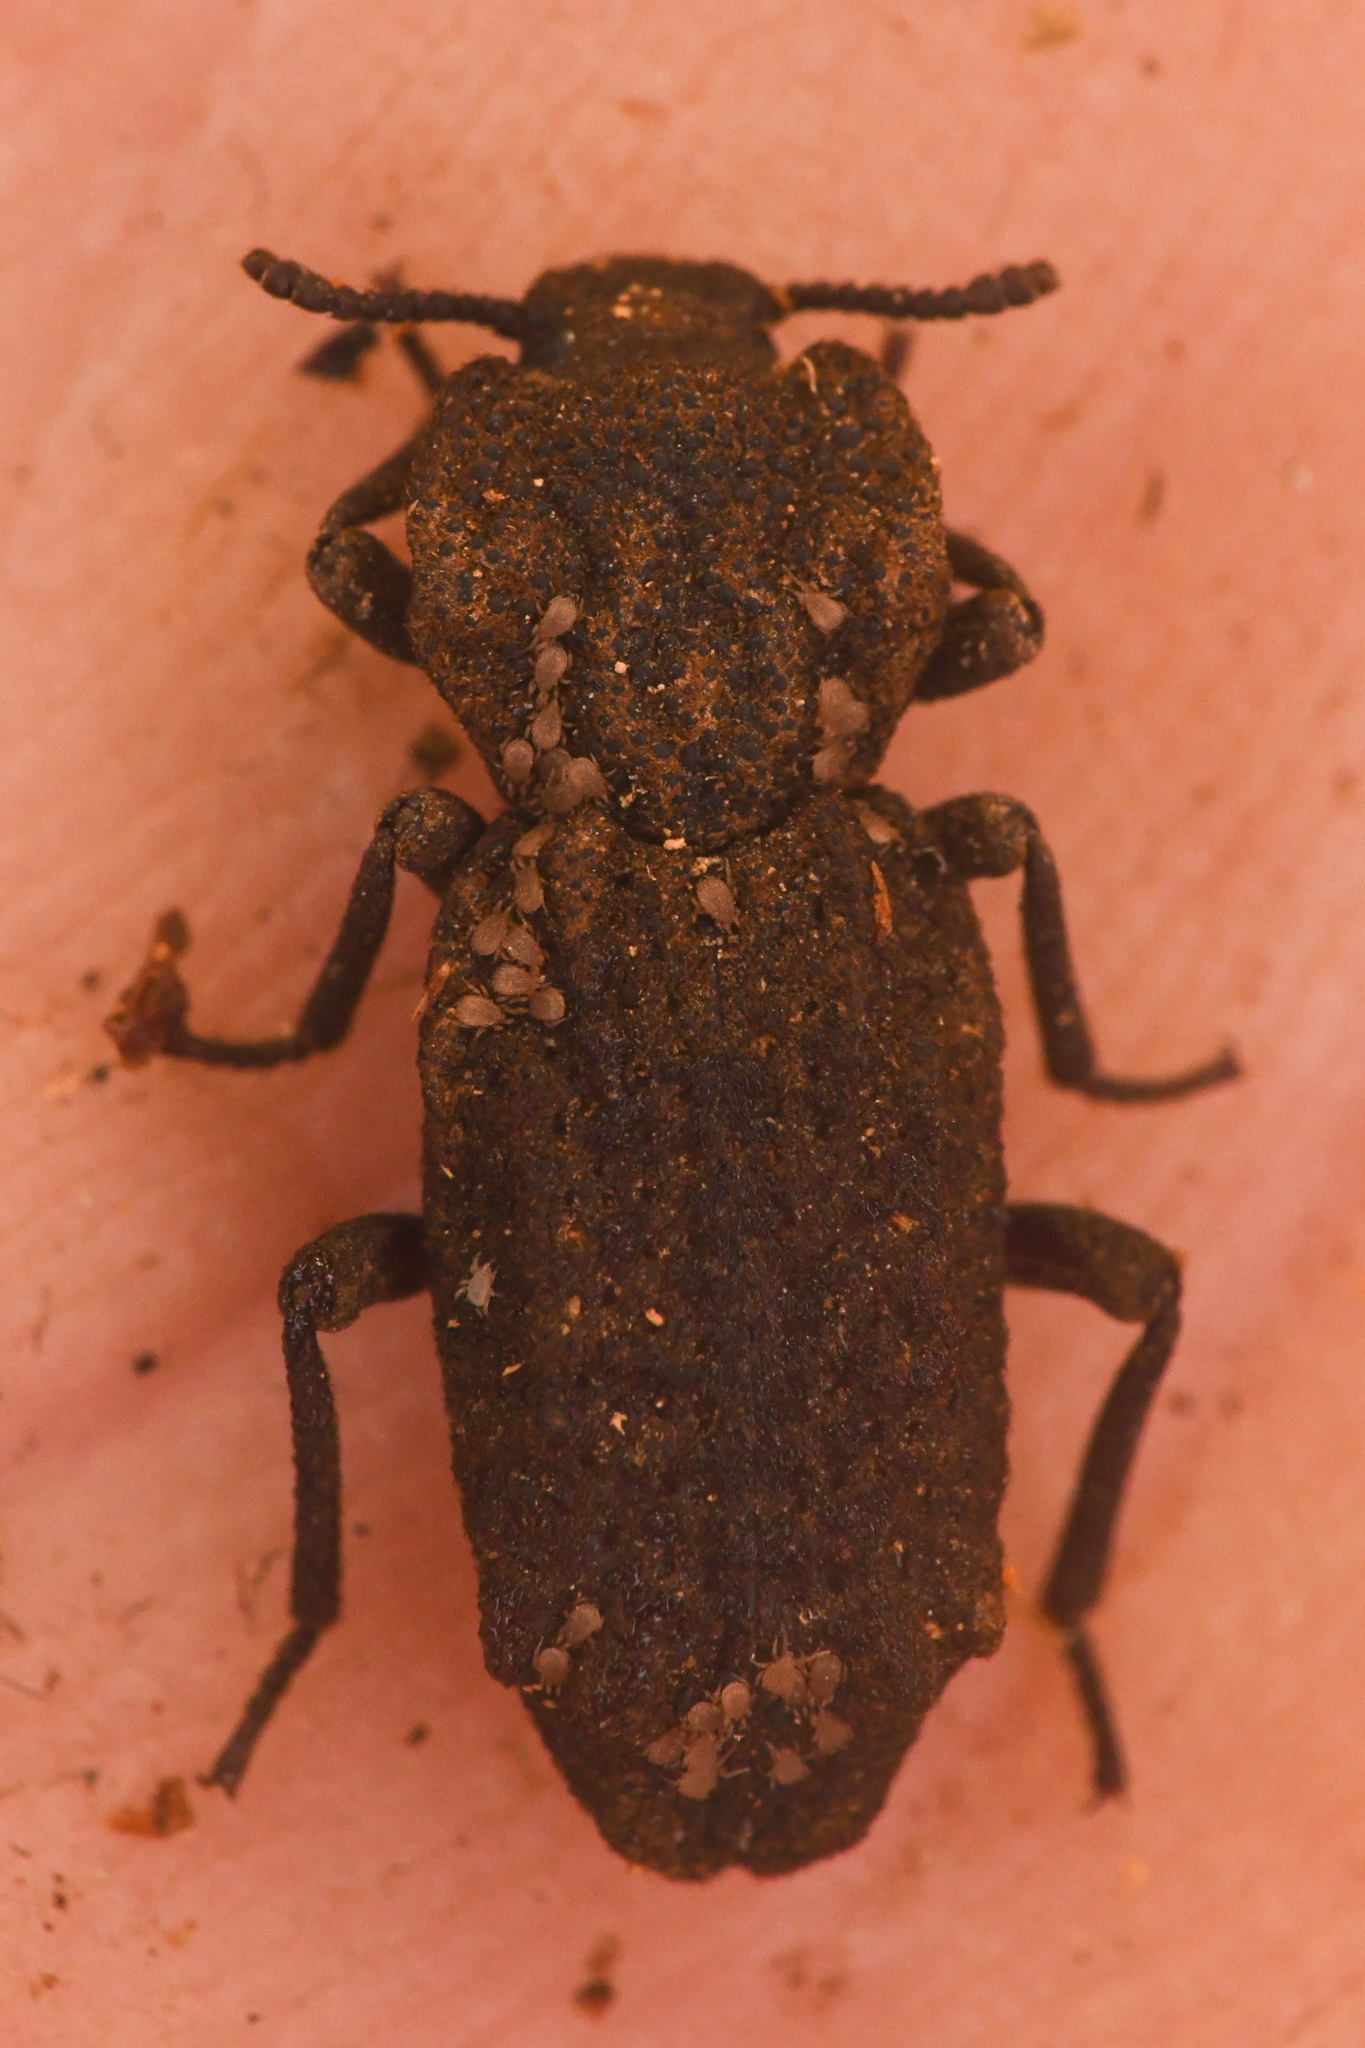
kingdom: Animalia
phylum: Arthropoda
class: Insecta
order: Coleoptera
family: Zopheridae
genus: Phellopsis
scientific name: Phellopsis porcata
